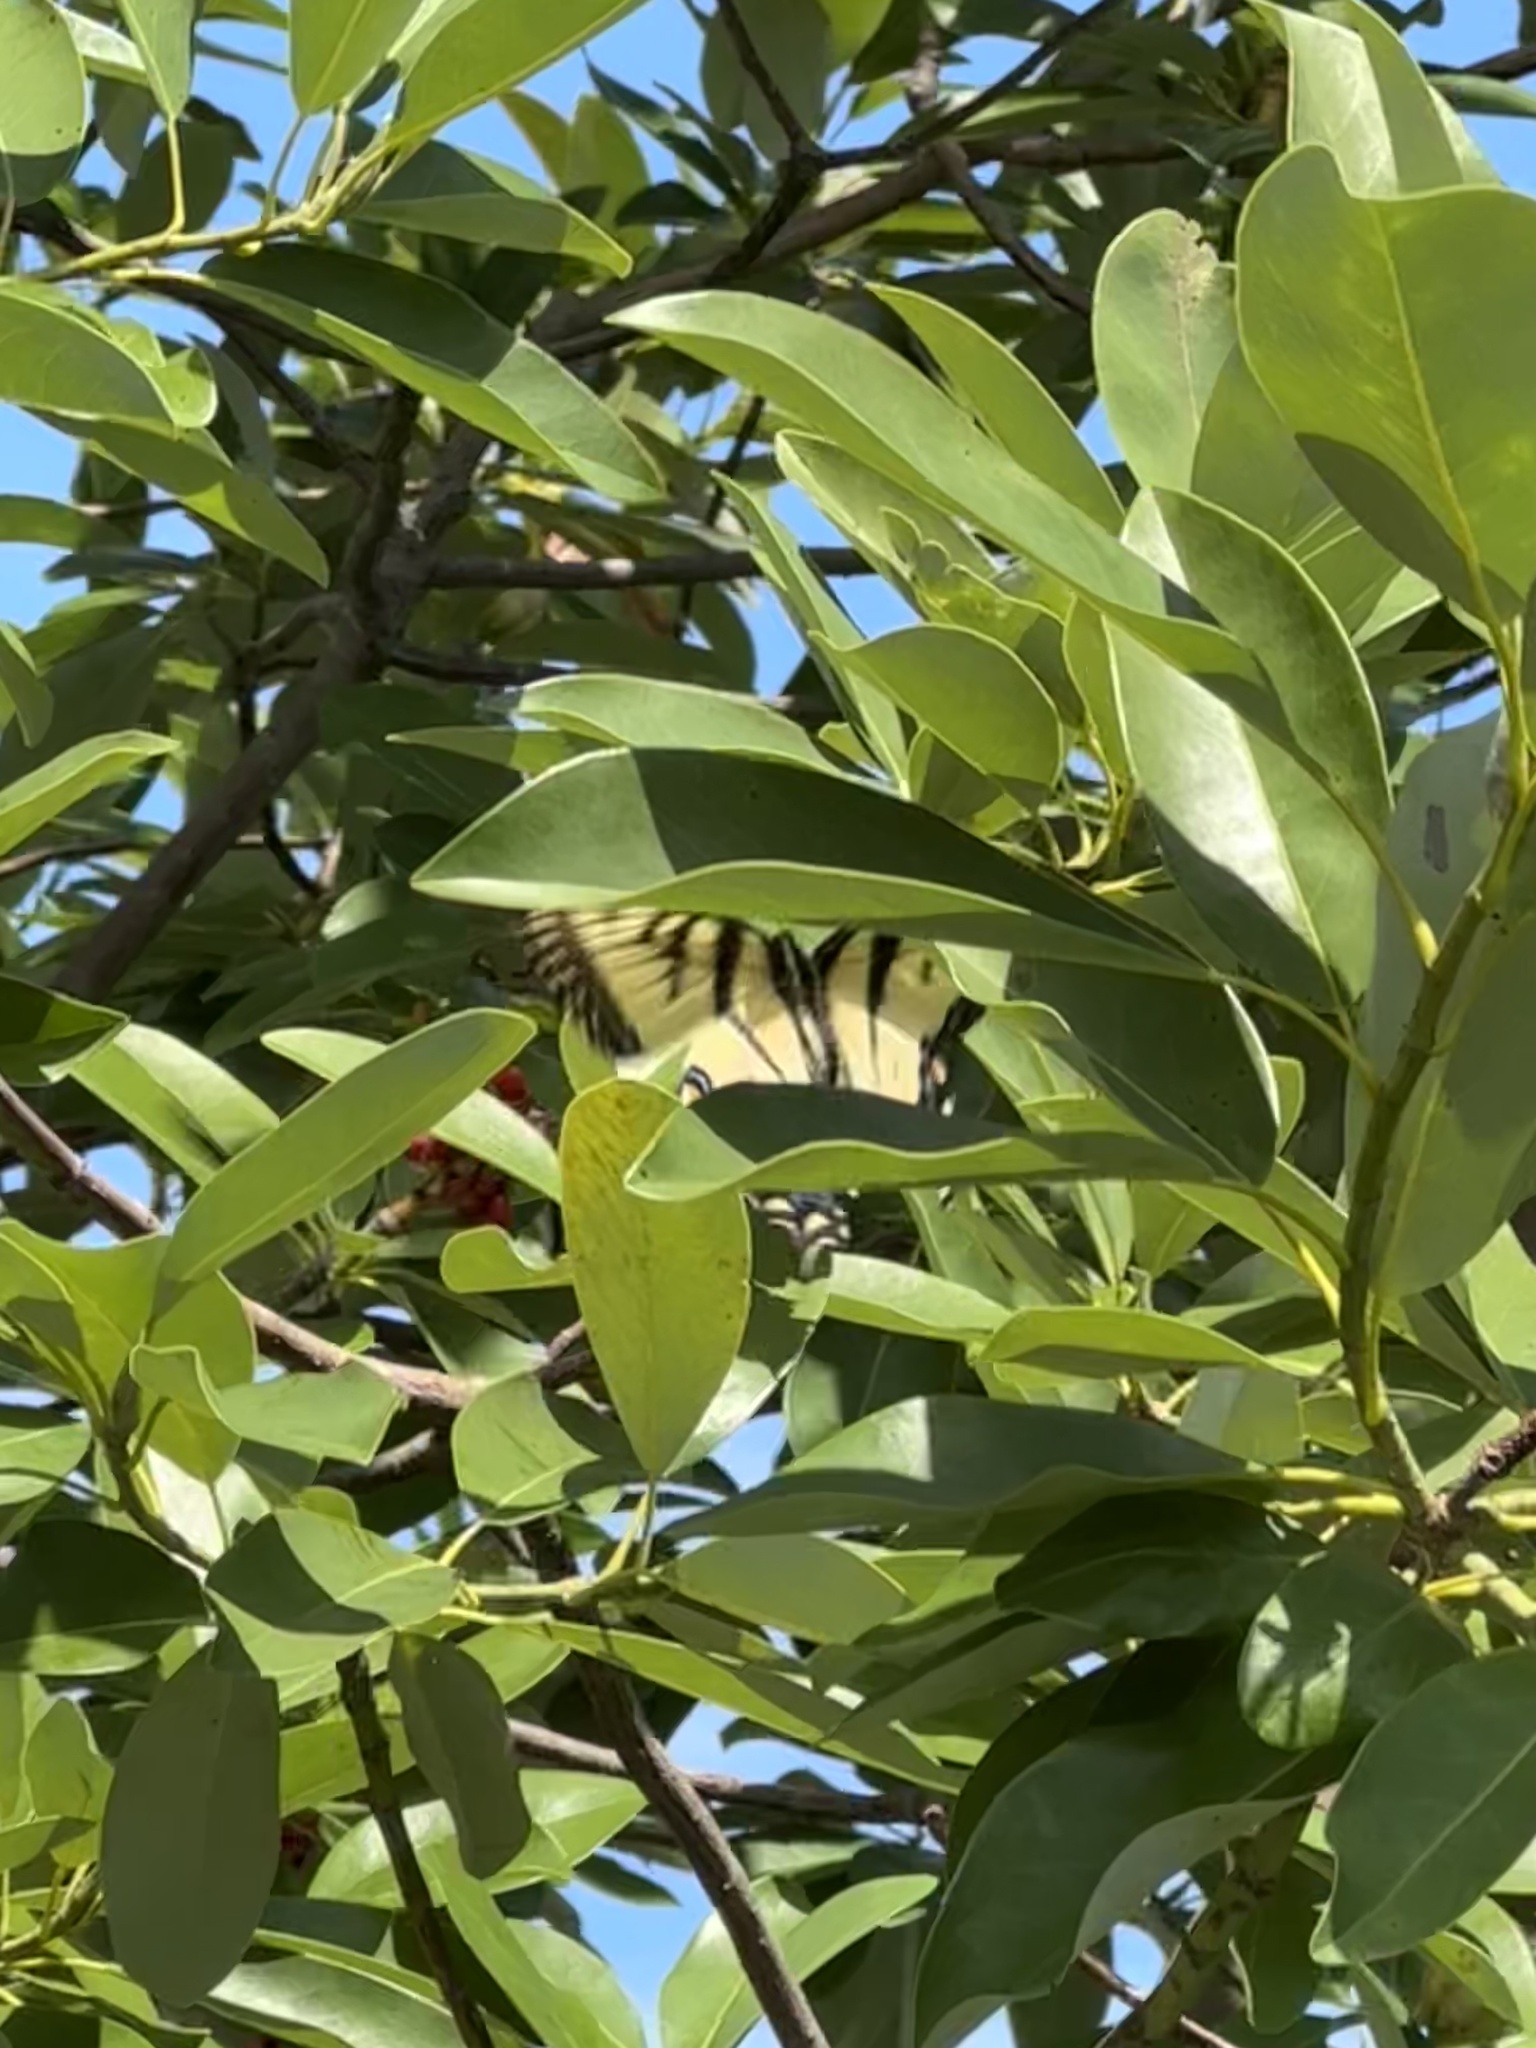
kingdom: Animalia
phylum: Arthropoda
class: Insecta
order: Lepidoptera
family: Papilionidae
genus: Papilio
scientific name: Papilio glaucus
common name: Tiger swallowtail
